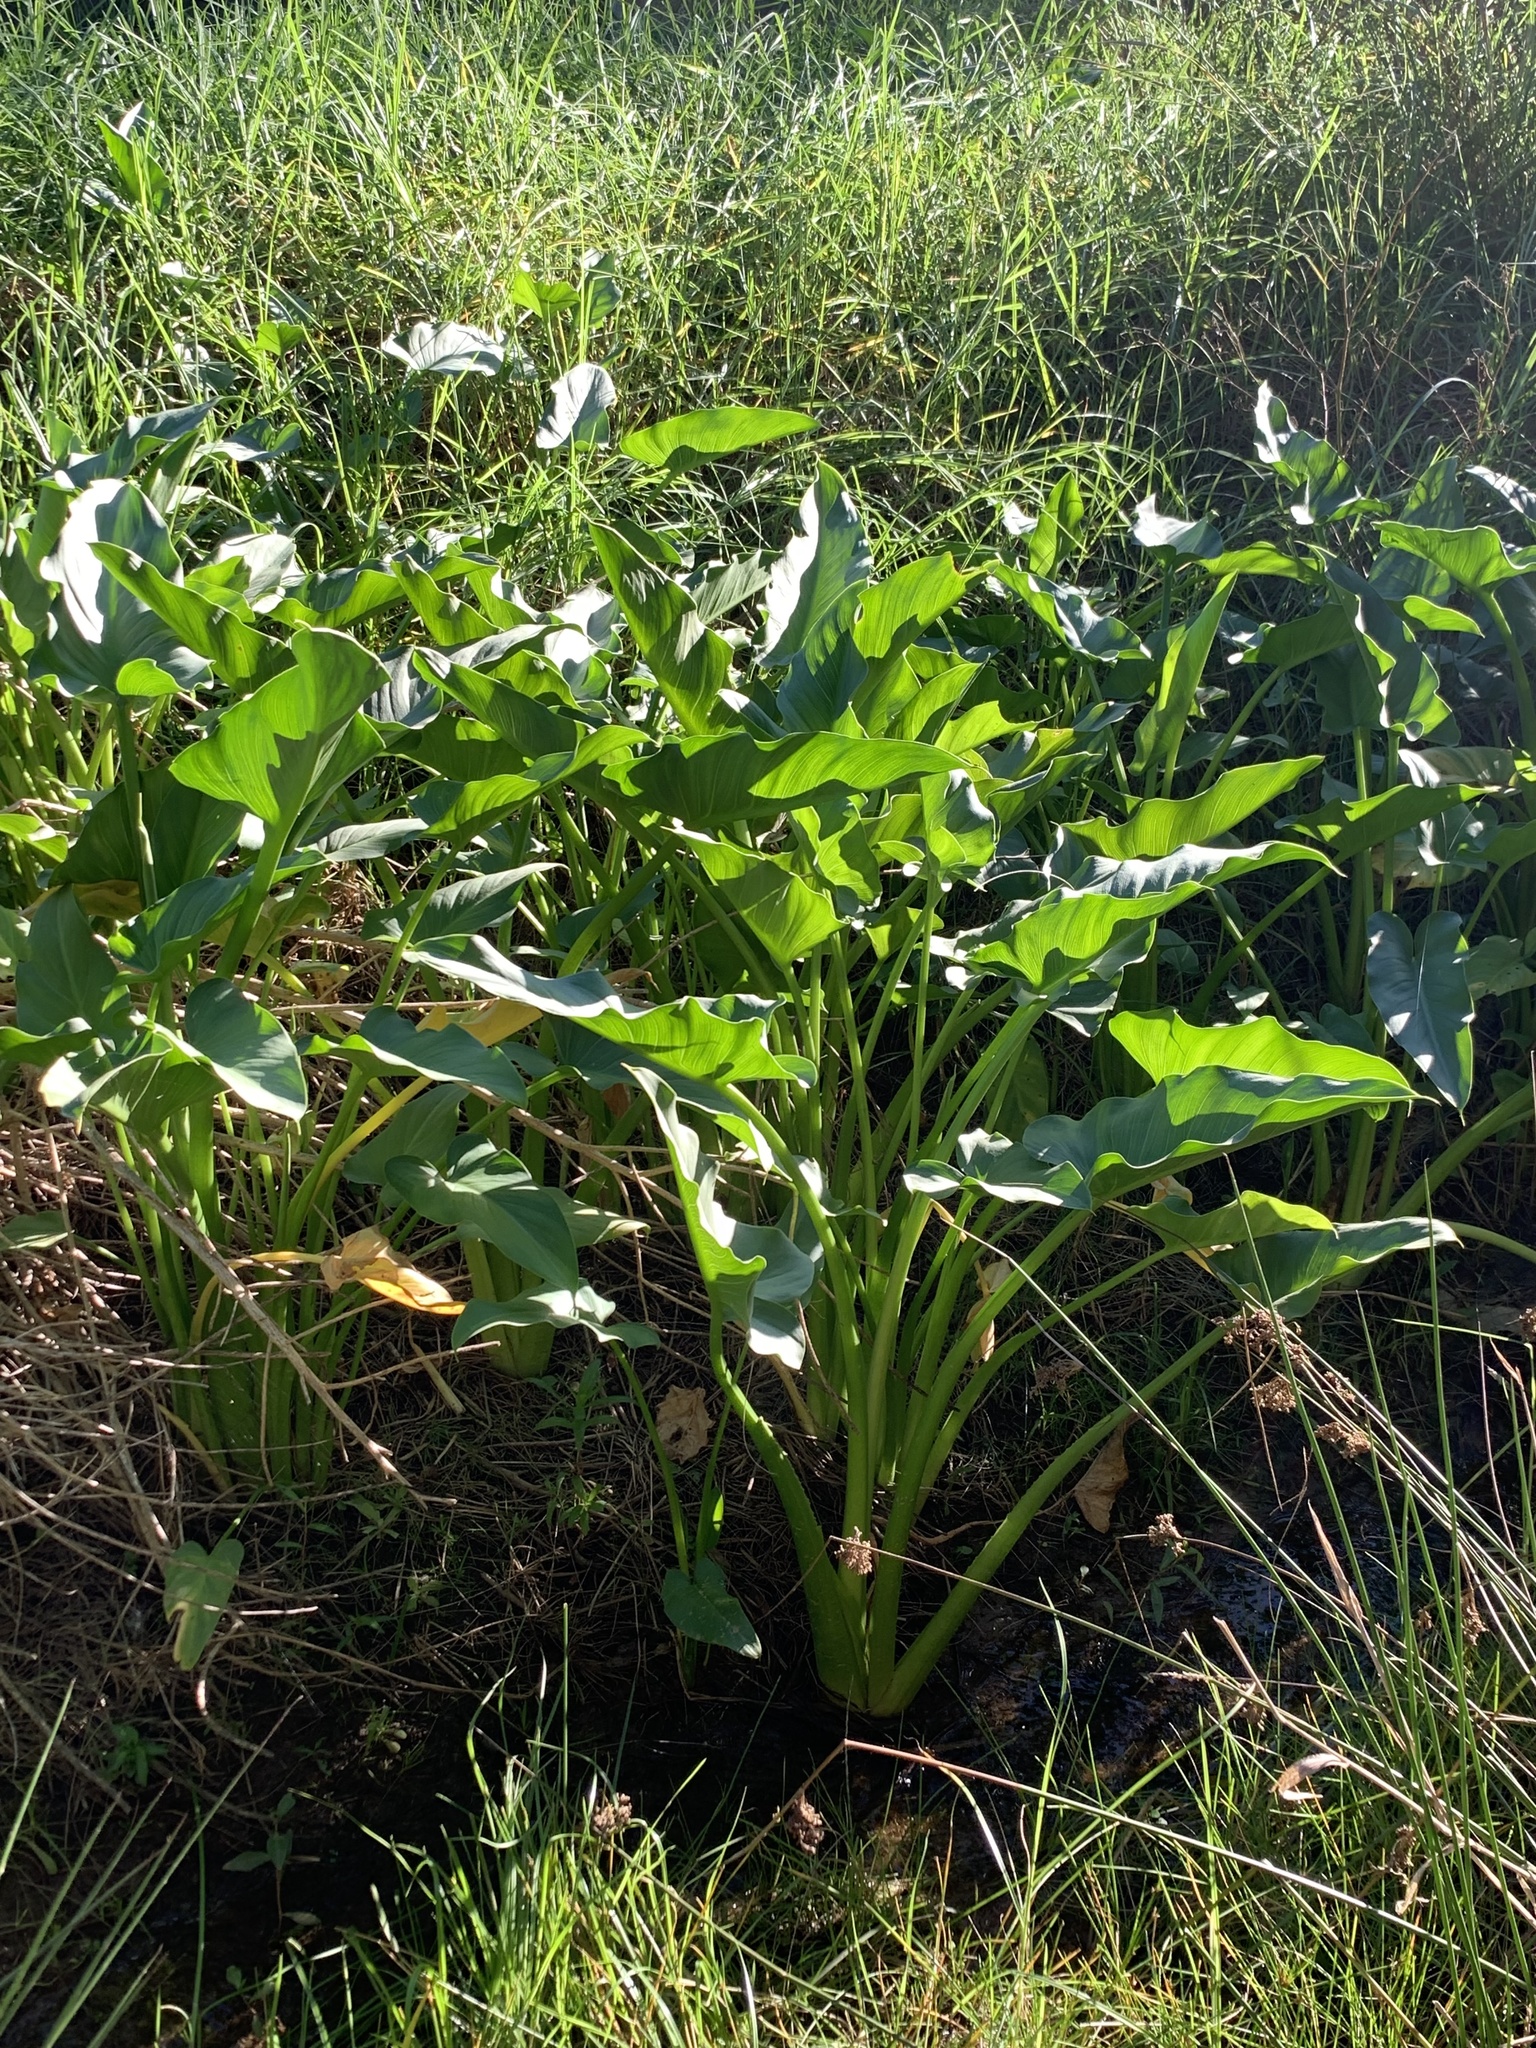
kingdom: Plantae
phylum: Tracheophyta
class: Liliopsida
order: Alismatales
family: Araceae
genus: Zantedeschia
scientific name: Zantedeschia aethiopica
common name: Altar-lily
